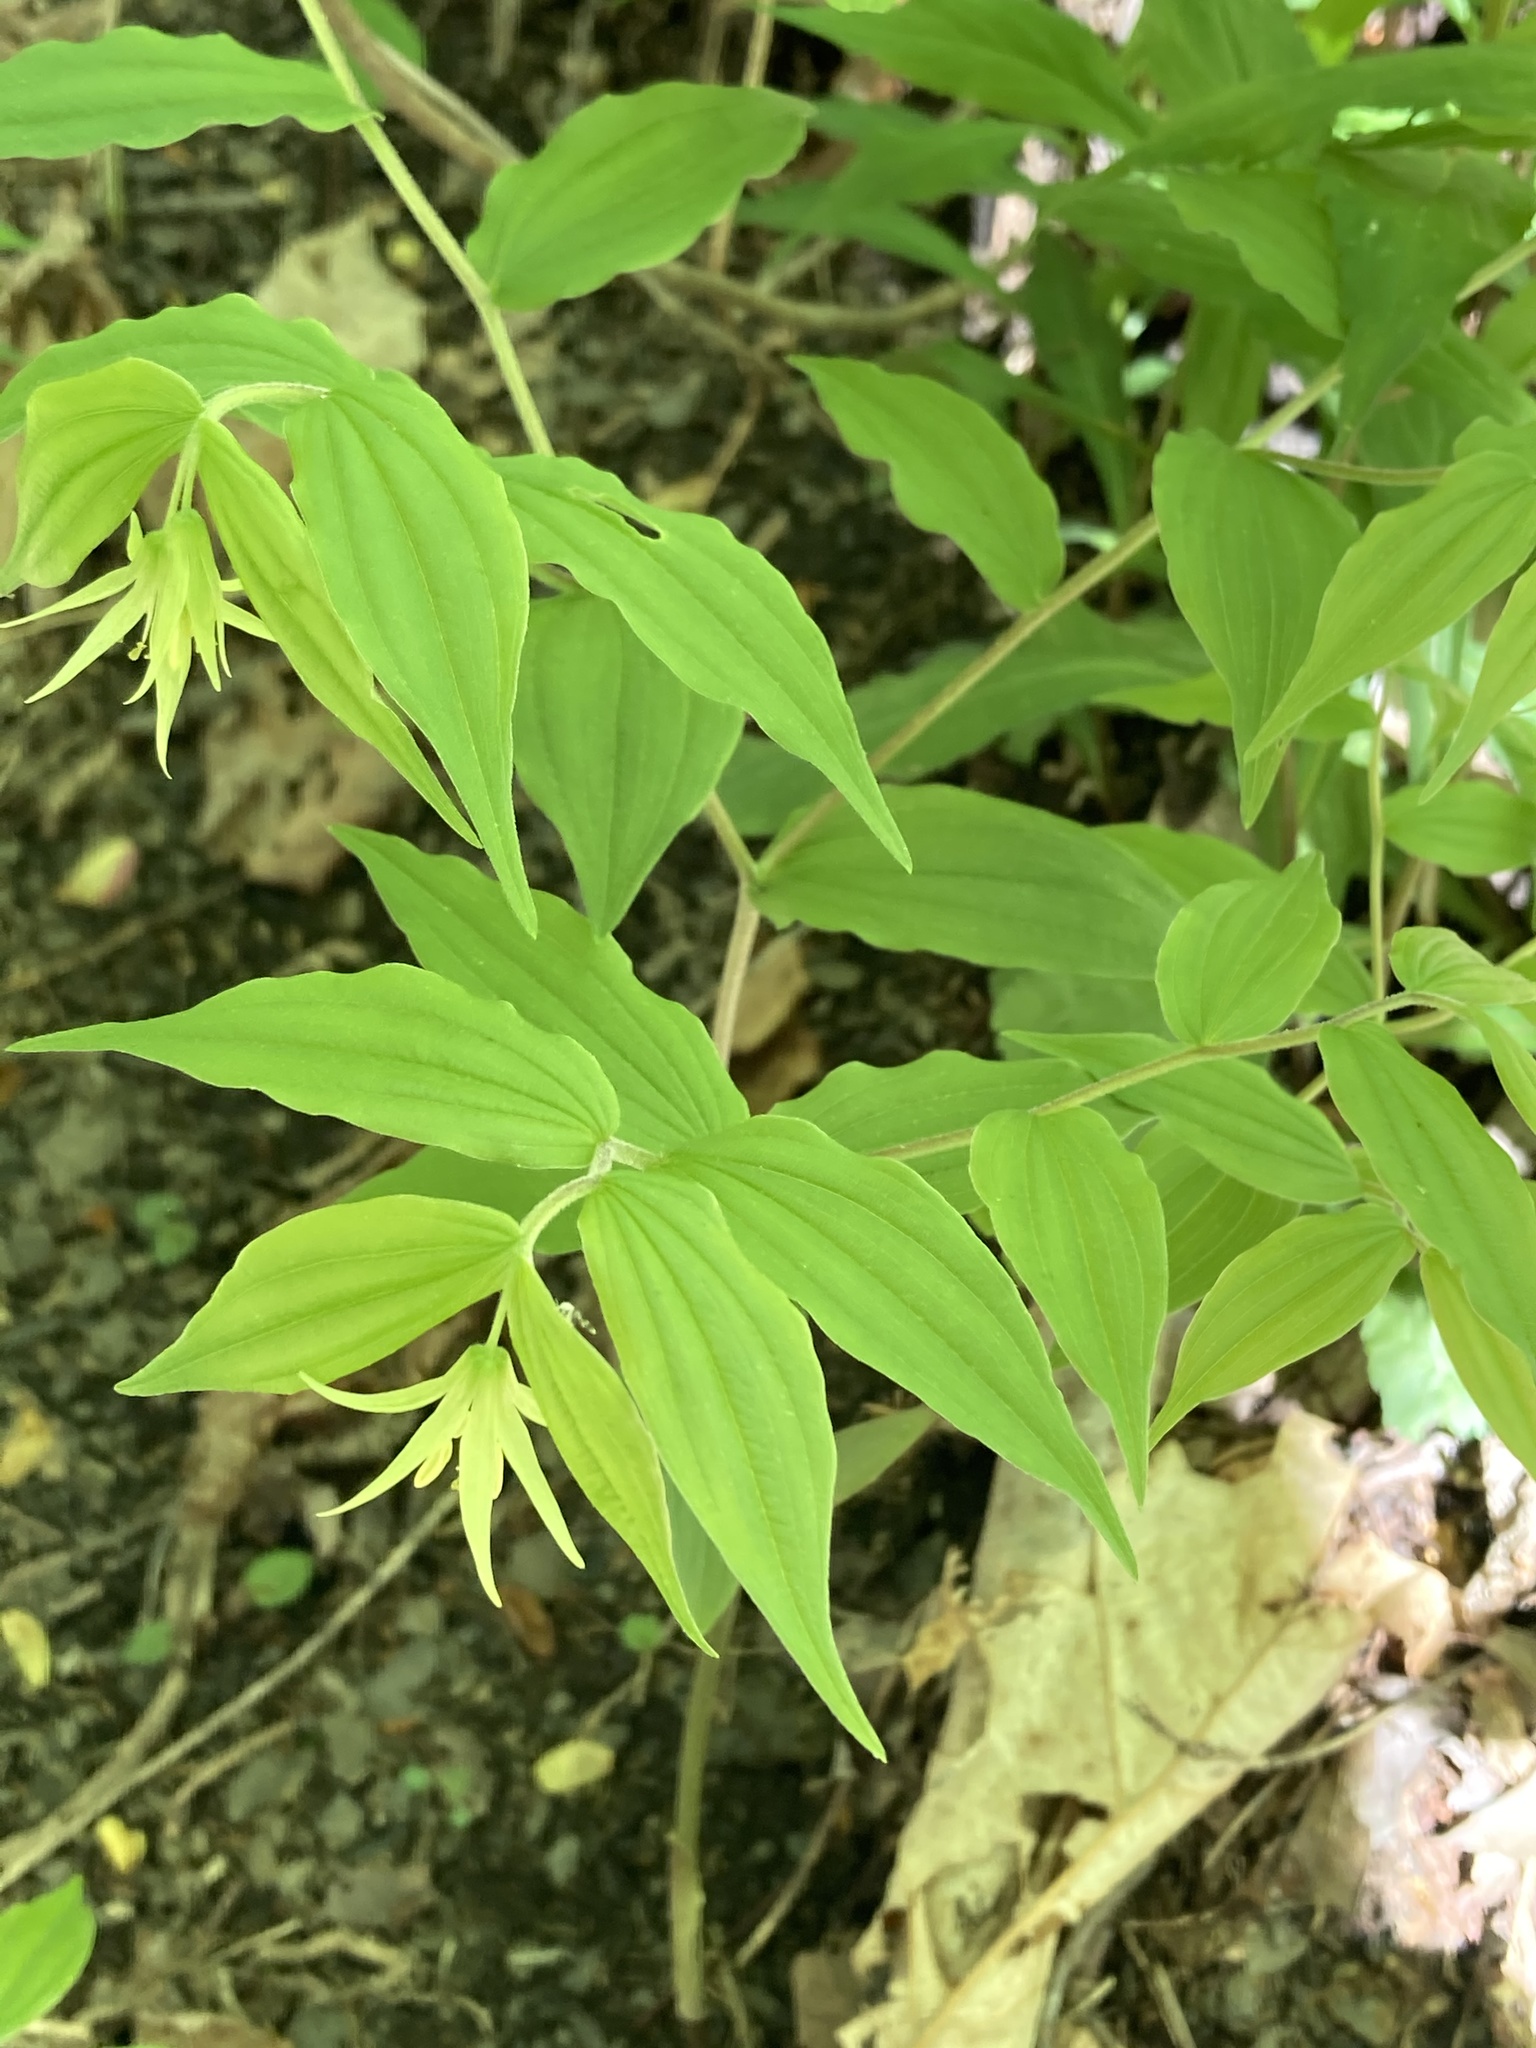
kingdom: Plantae
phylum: Tracheophyta
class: Liliopsida
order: Liliales
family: Liliaceae
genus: Prosartes
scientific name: Prosartes lanuginosa
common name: Hairy mandarin
